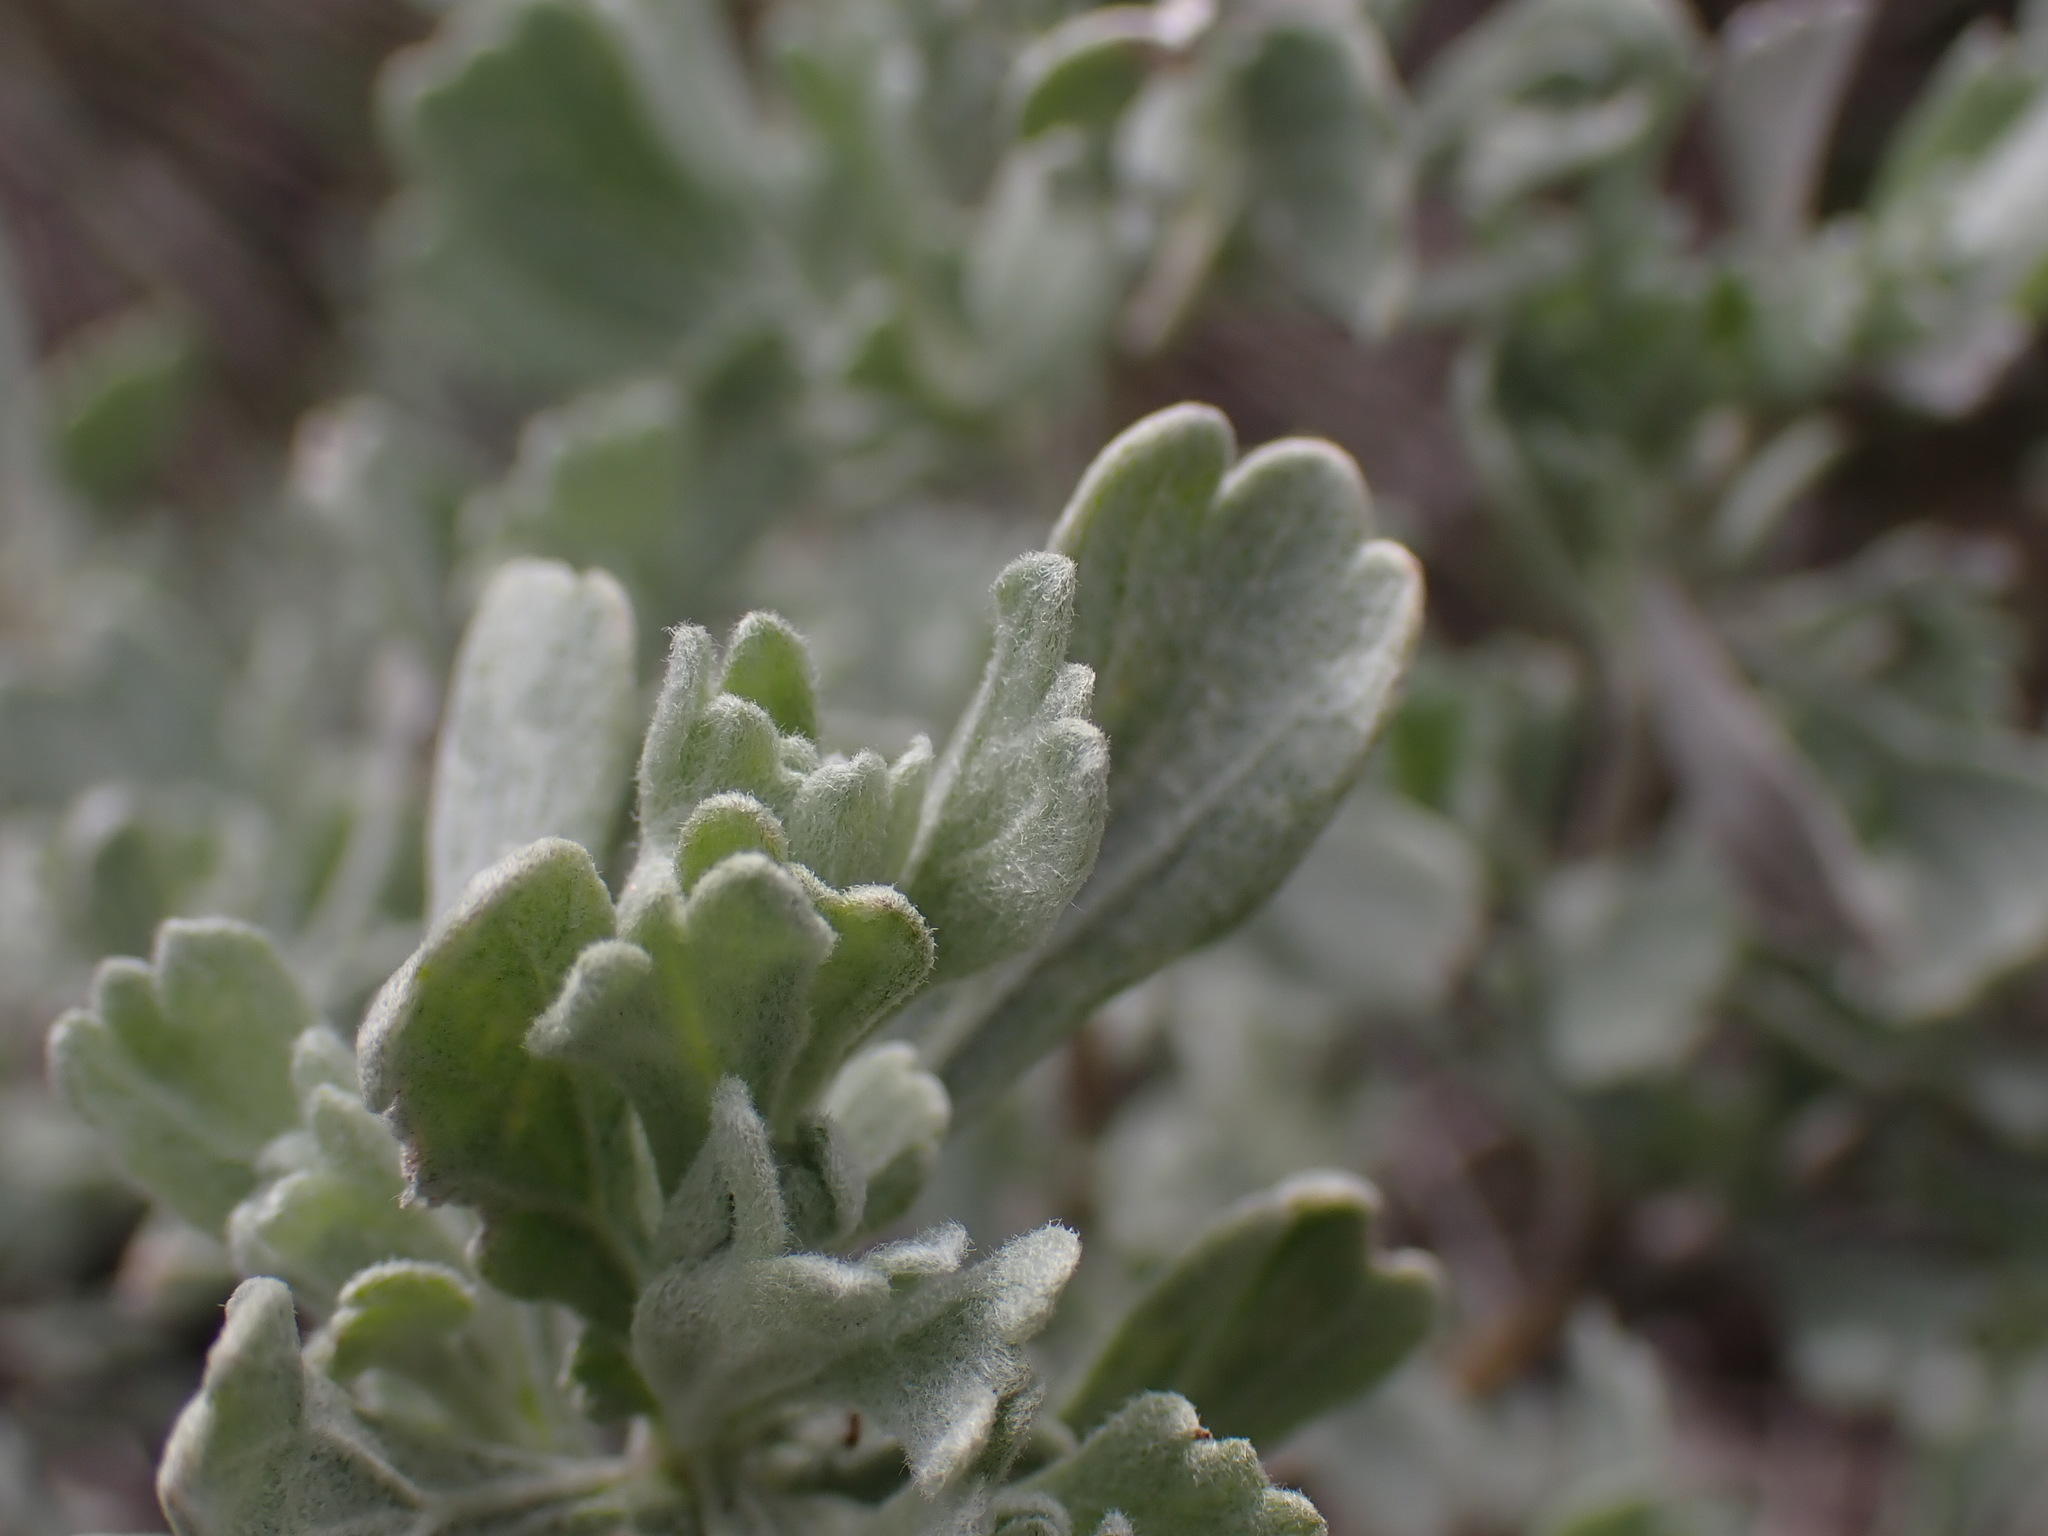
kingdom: Plantae
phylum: Tracheophyta
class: Magnoliopsida
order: Asterales
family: Asteraceae
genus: Artemisia
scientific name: Artemisia tridentata
